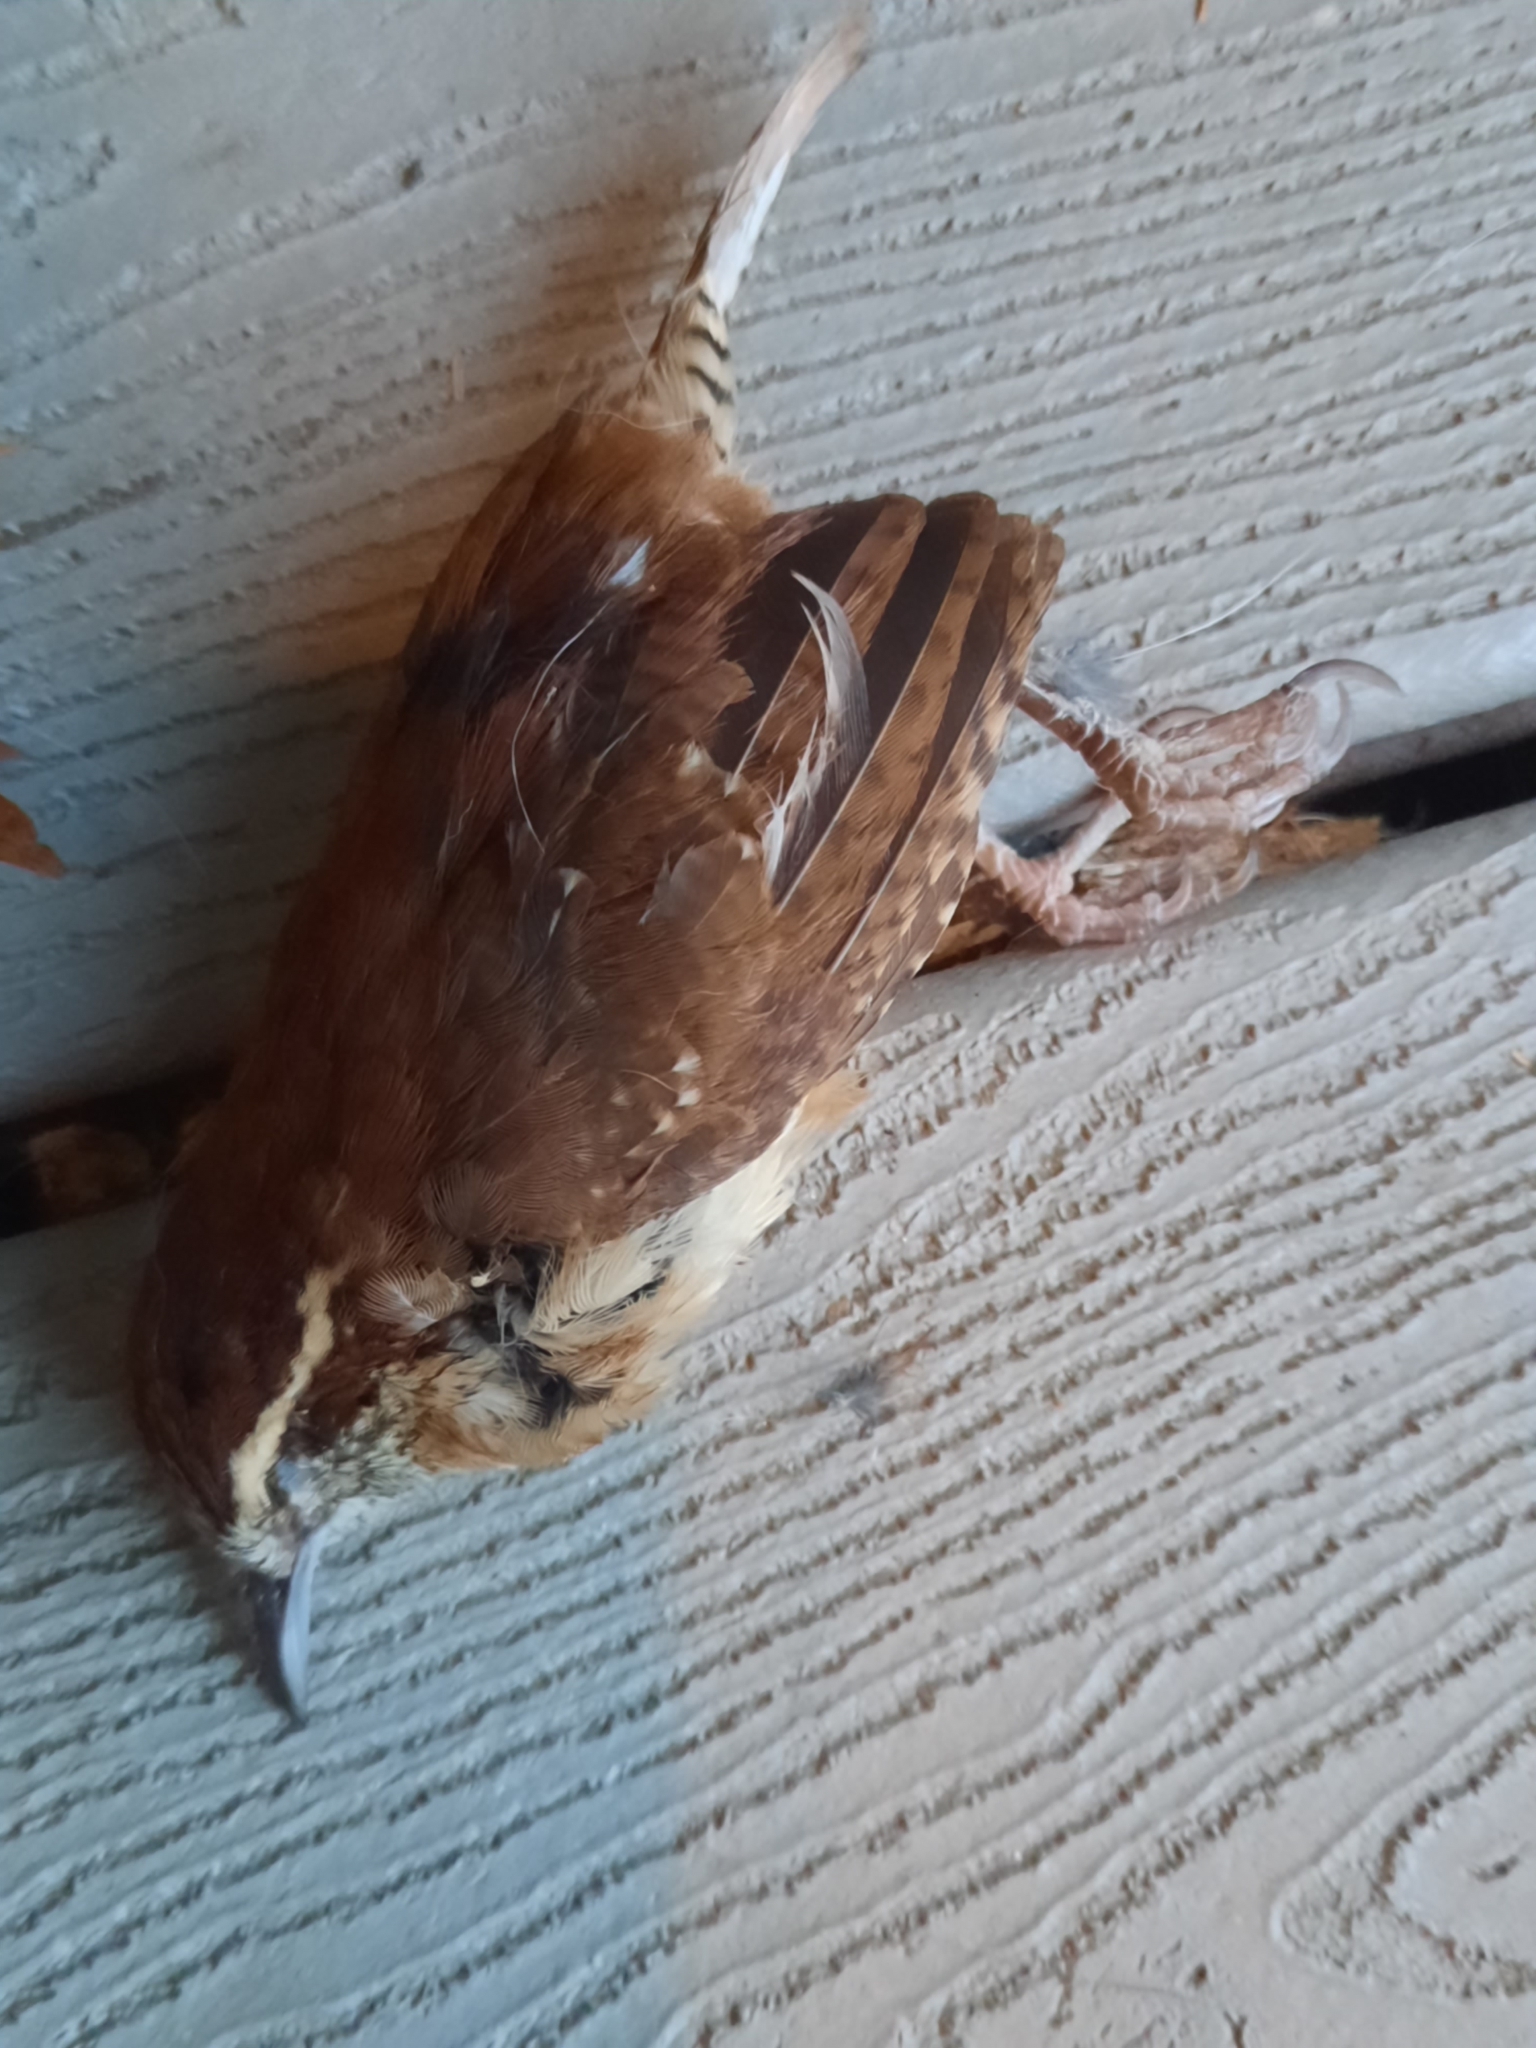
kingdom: Animalia
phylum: Chordata
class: Aves
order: Passeriformes
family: Troglodytidae
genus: Thryothorus
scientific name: Thryothorus ludovicianus
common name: Carolina wren
